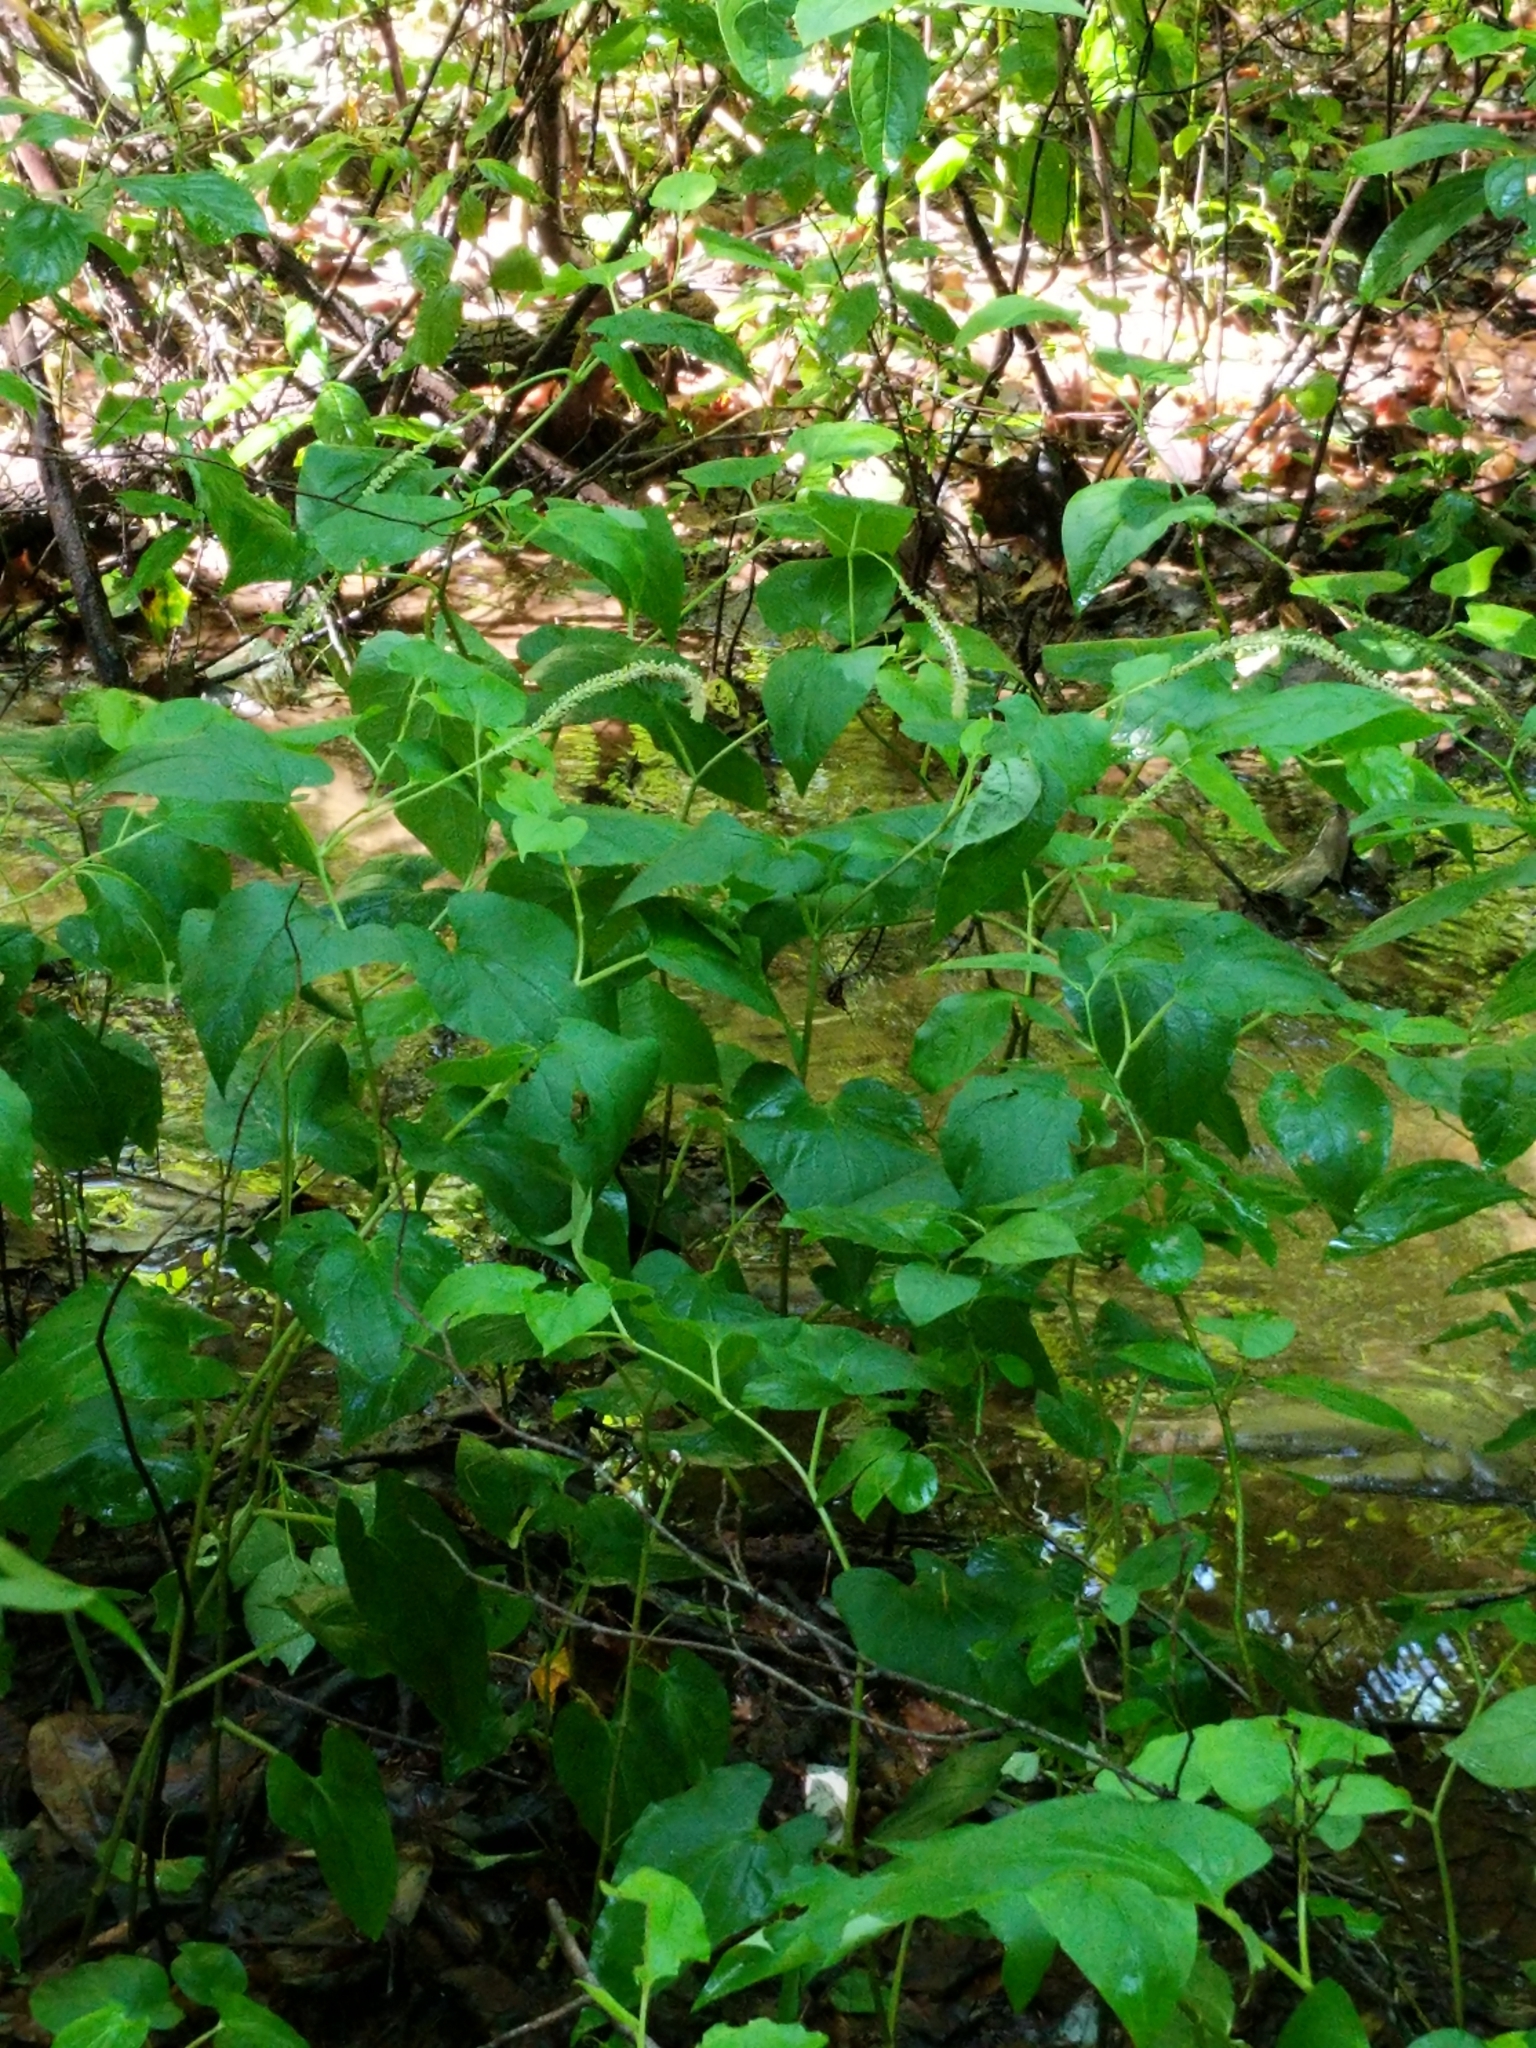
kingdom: Plantae
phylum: Tracheophyta
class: Magnoliopsida
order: Piperales
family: Saururaceae
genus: Saururus
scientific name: Saururus cernuus
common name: Lizard's-tail
